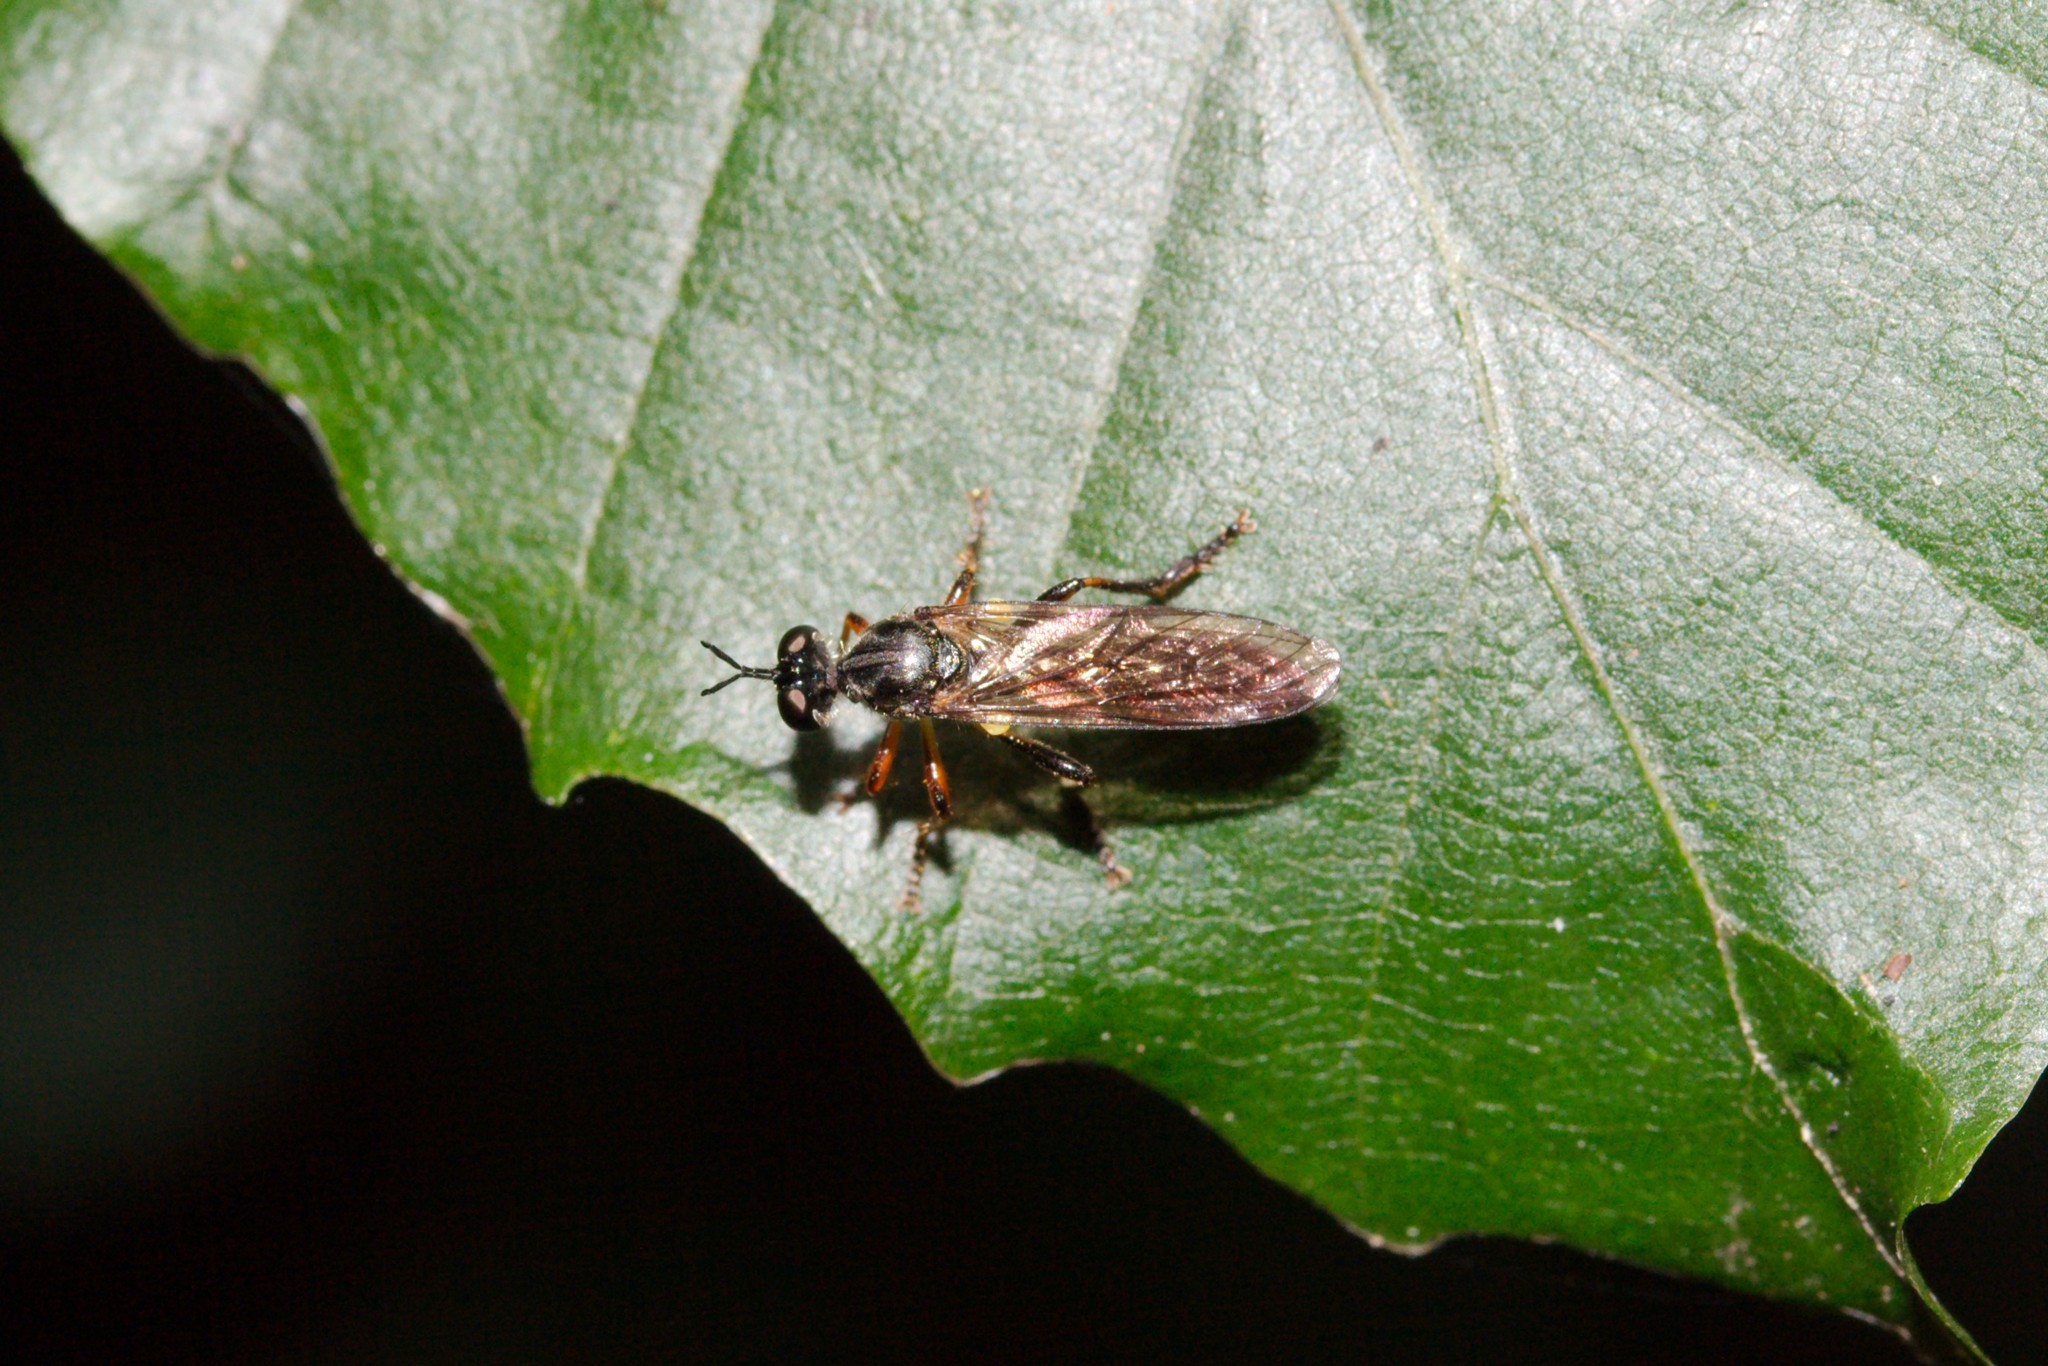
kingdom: Animalia
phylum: Arthropoda
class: Insecta
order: Diptera
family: Asilidae
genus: Dioctria
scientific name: Dioctria hyalipennis
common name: Stripe-legged robberfly
